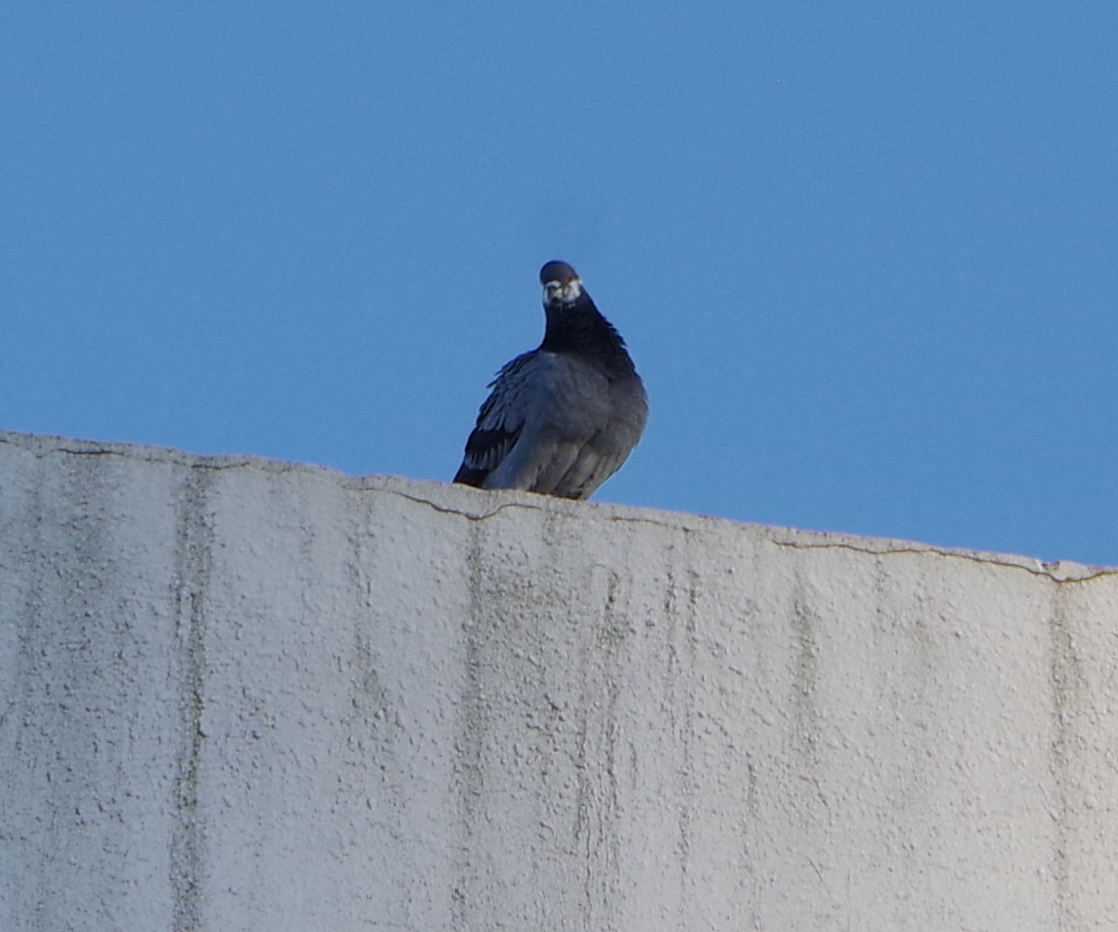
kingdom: Animalia
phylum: Chordata
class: Aves
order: Columbiformes
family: Columbidae
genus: Columba
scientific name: Columba livia
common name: Rock pigeon
